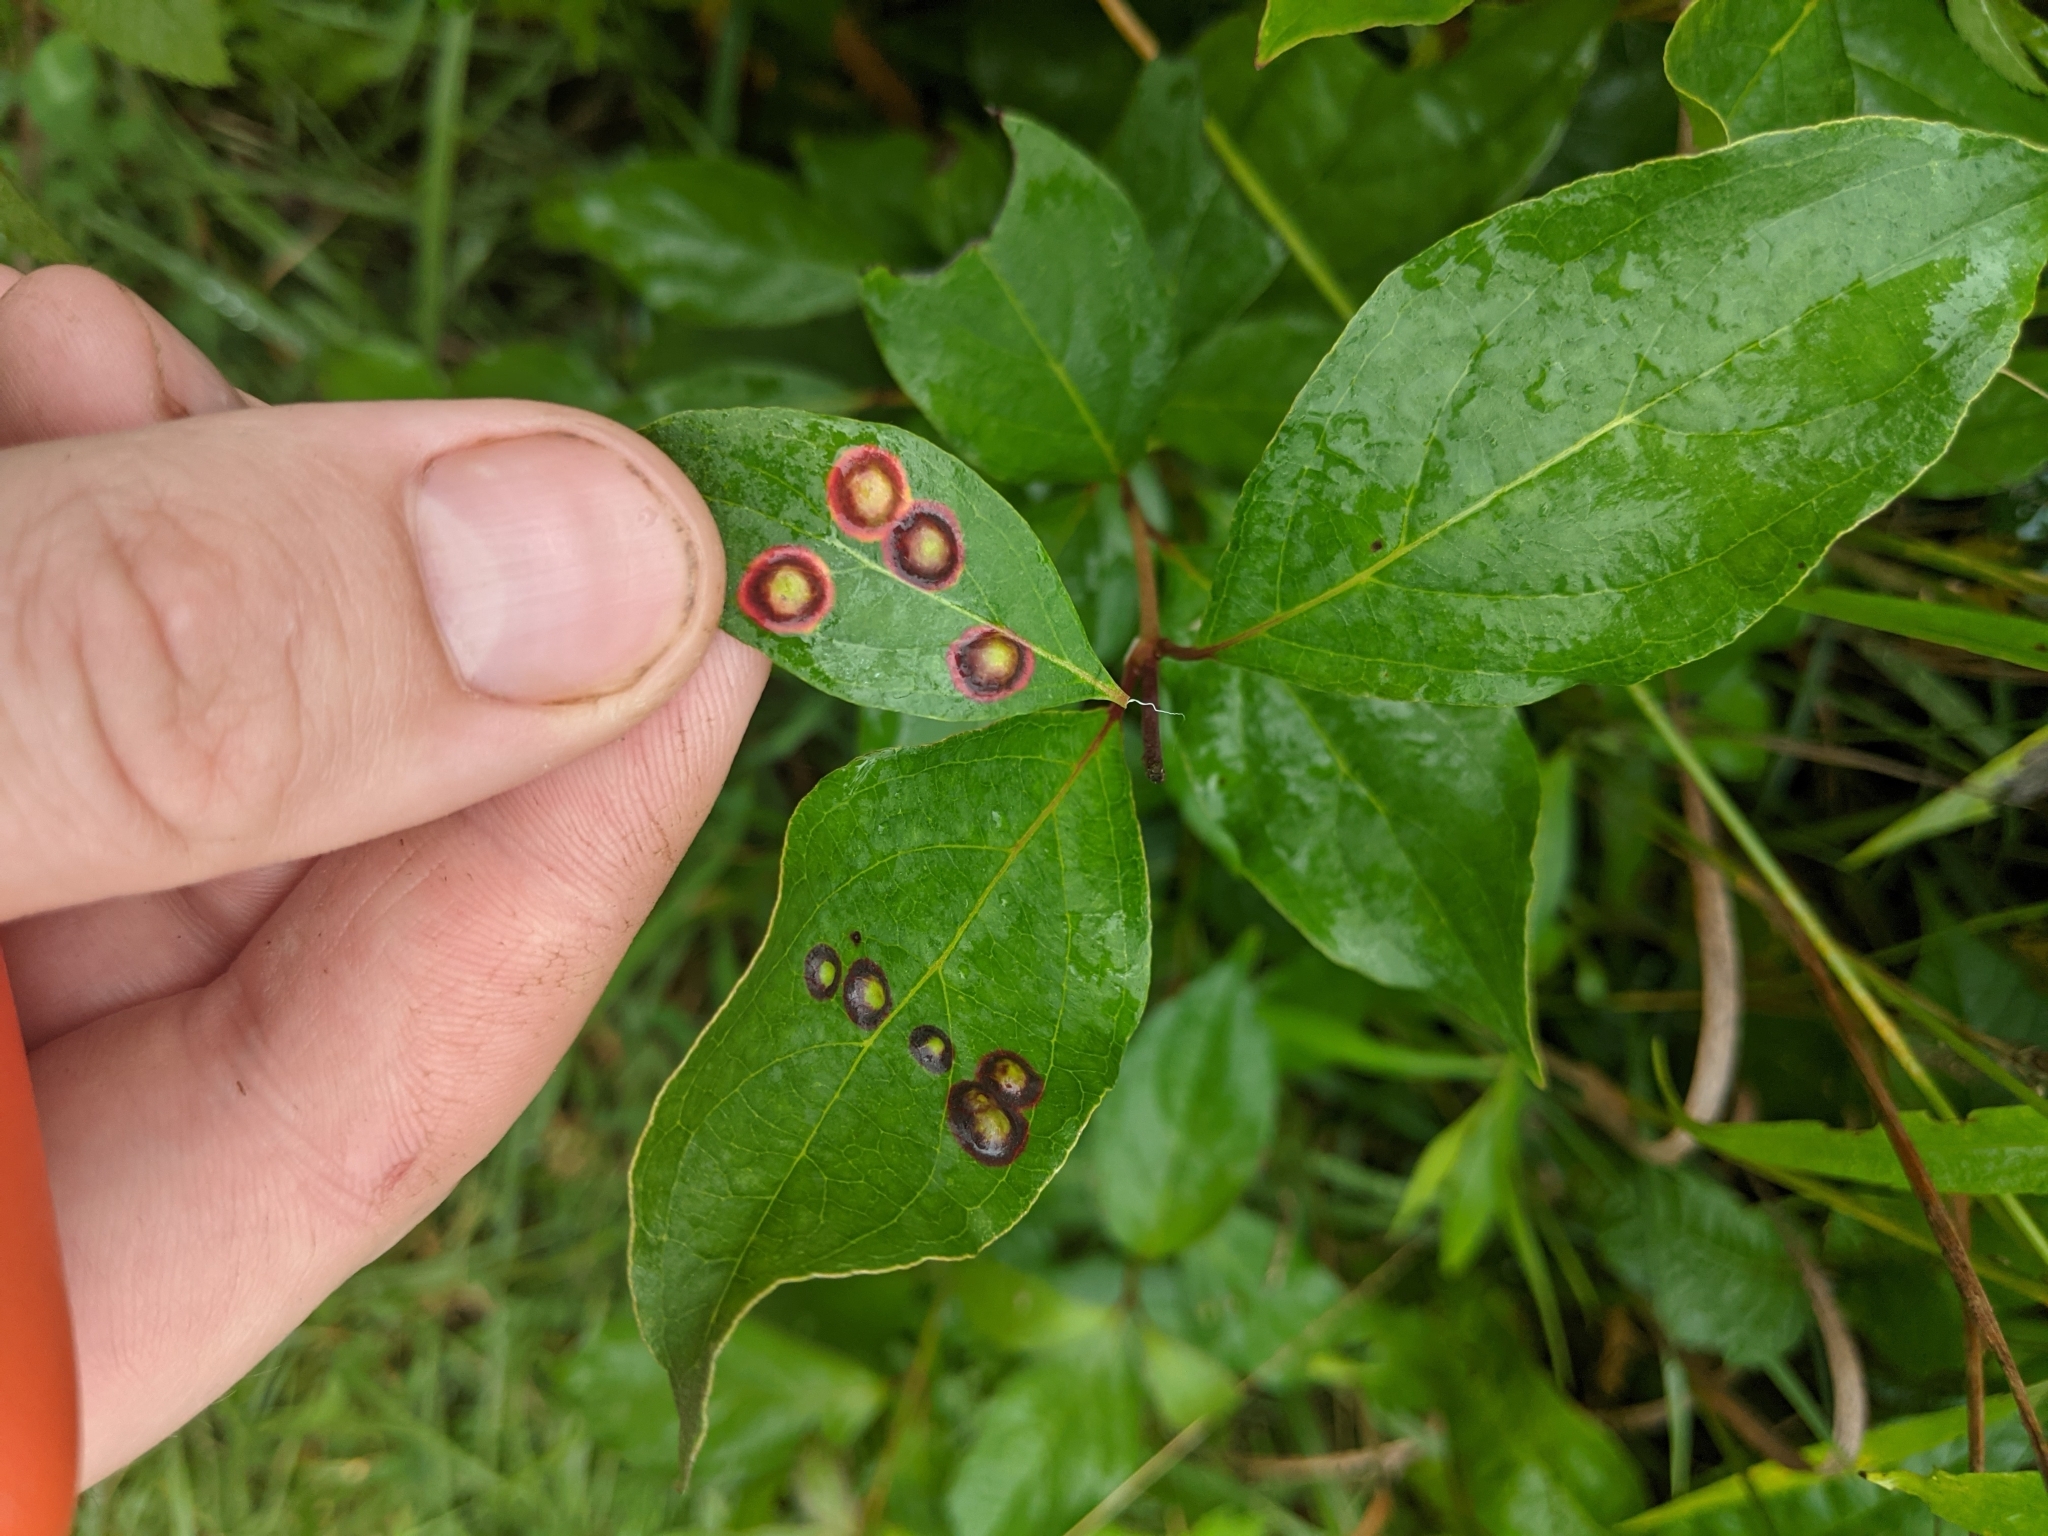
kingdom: Animalia
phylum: Arthropoda
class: Insecta
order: Diptera
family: Cecidomyiidae
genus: Parallelodiplosis
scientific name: Parallelodiplosis subtruncata
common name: Dogwood eyespot gall midge
